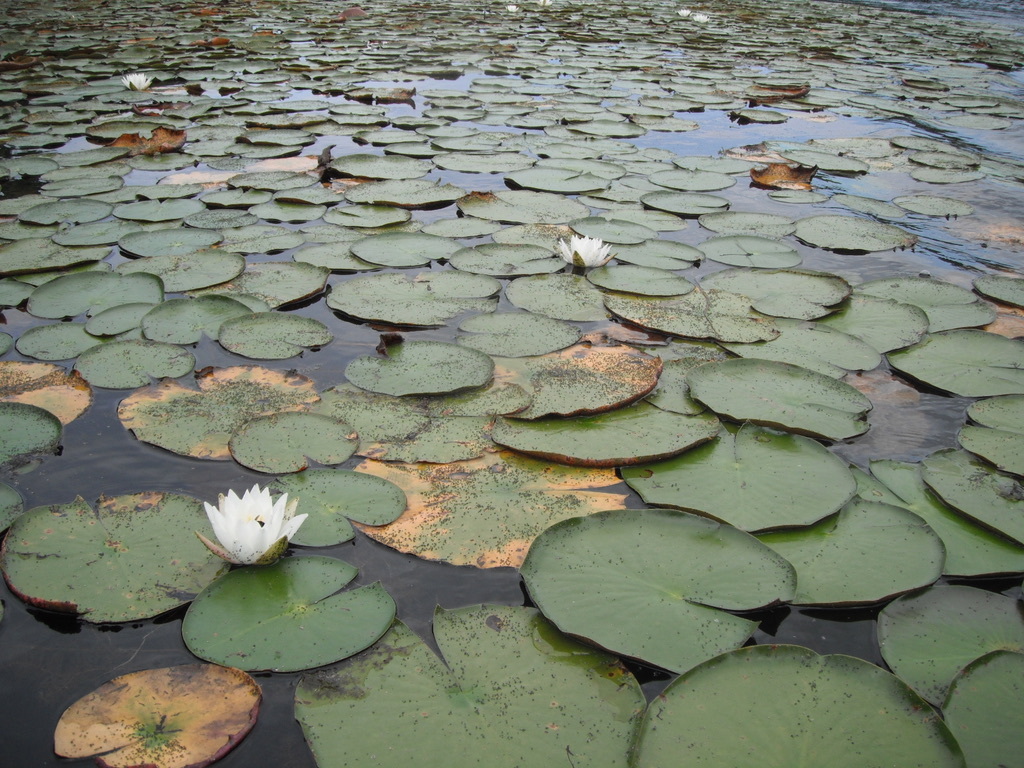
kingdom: Plantae
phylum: Tracheophyta
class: Magnoliopsida
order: Nymphaeales
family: Nymphaeaceae
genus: Nymphaea
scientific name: Nymphaea odorata
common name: Fragrant water-lily
